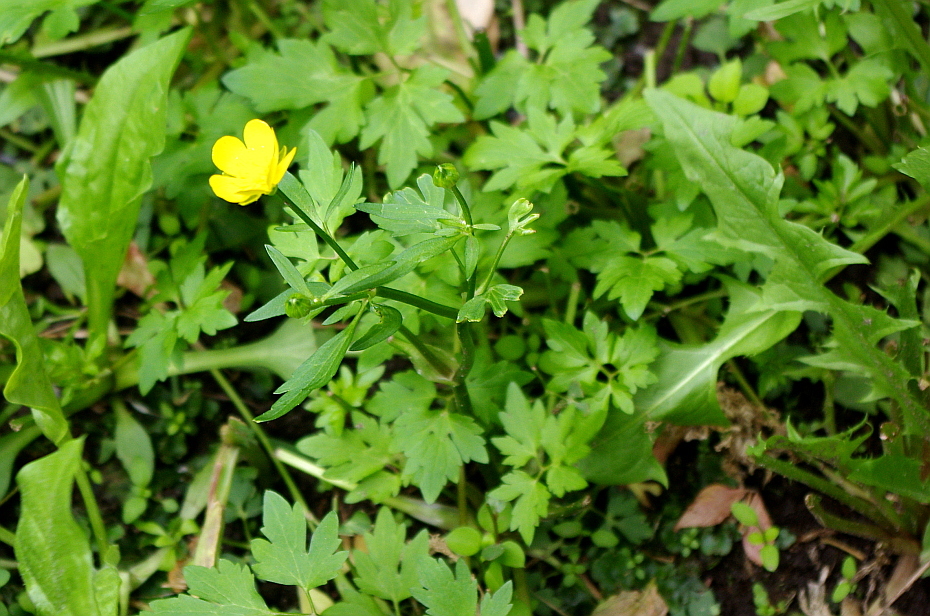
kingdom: Plantae
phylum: Tracheophyta
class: Magnoliopsida
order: Ranunculales
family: Ranunculaceae
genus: Ranunculus
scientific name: Ranunculus repens
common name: Creeping buttercup
